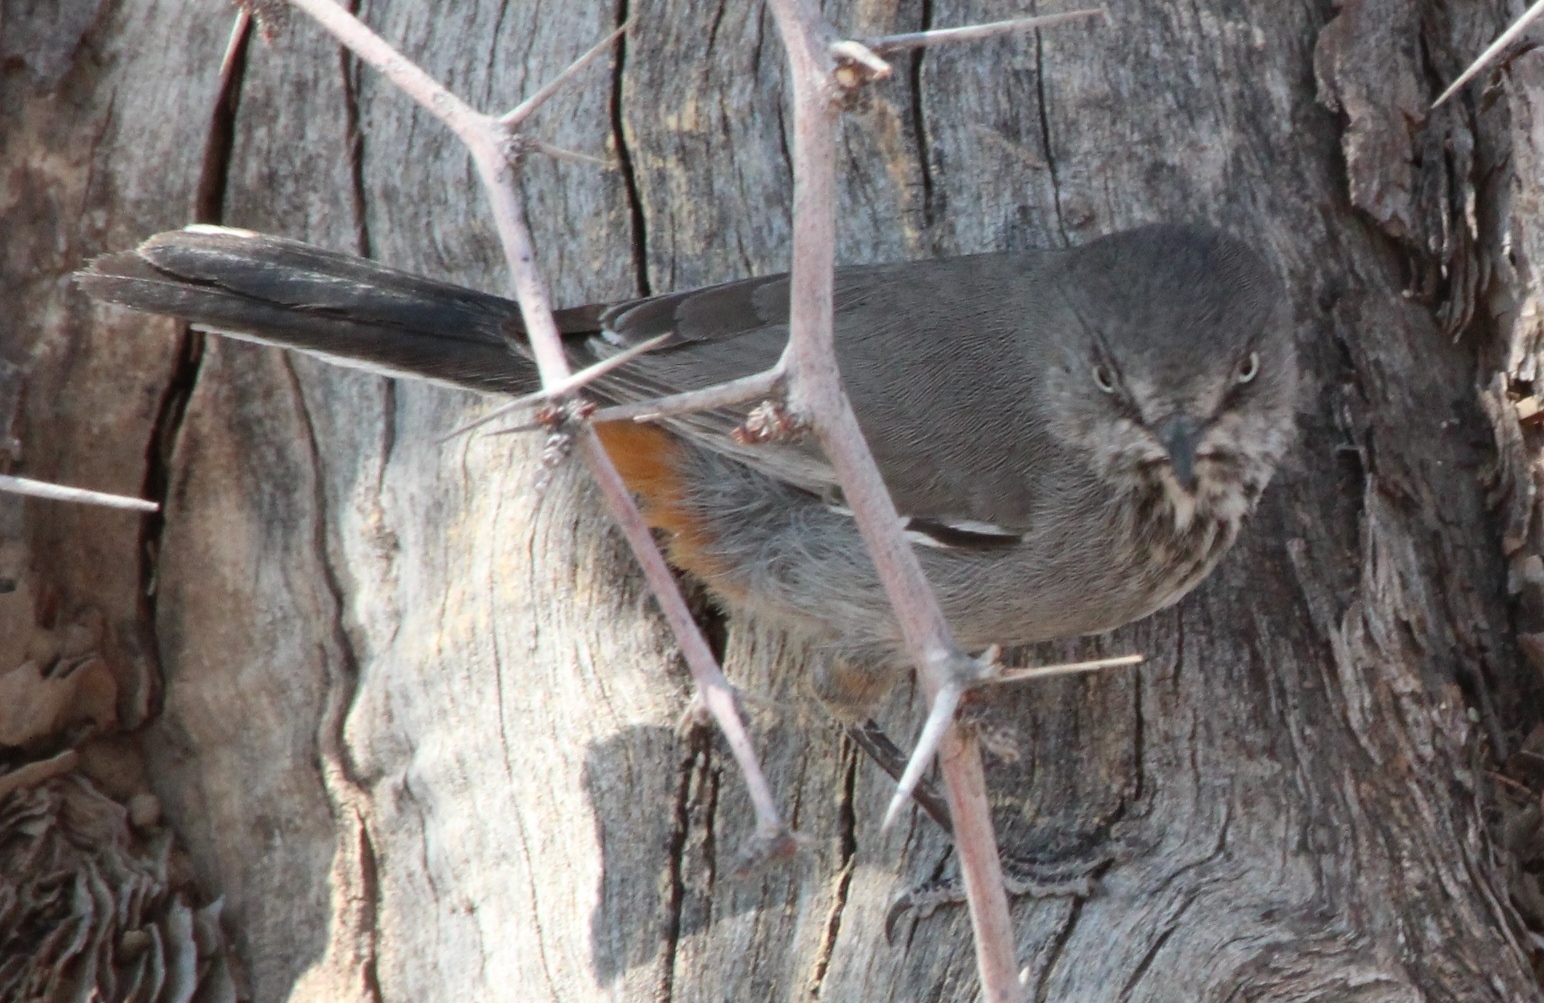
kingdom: Animalia
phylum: Chordata
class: Aves
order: Passeriformes
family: Sylviidae
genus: Sylvia
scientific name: Sylvia subcaerulea
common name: Chestnut-vented warbler
